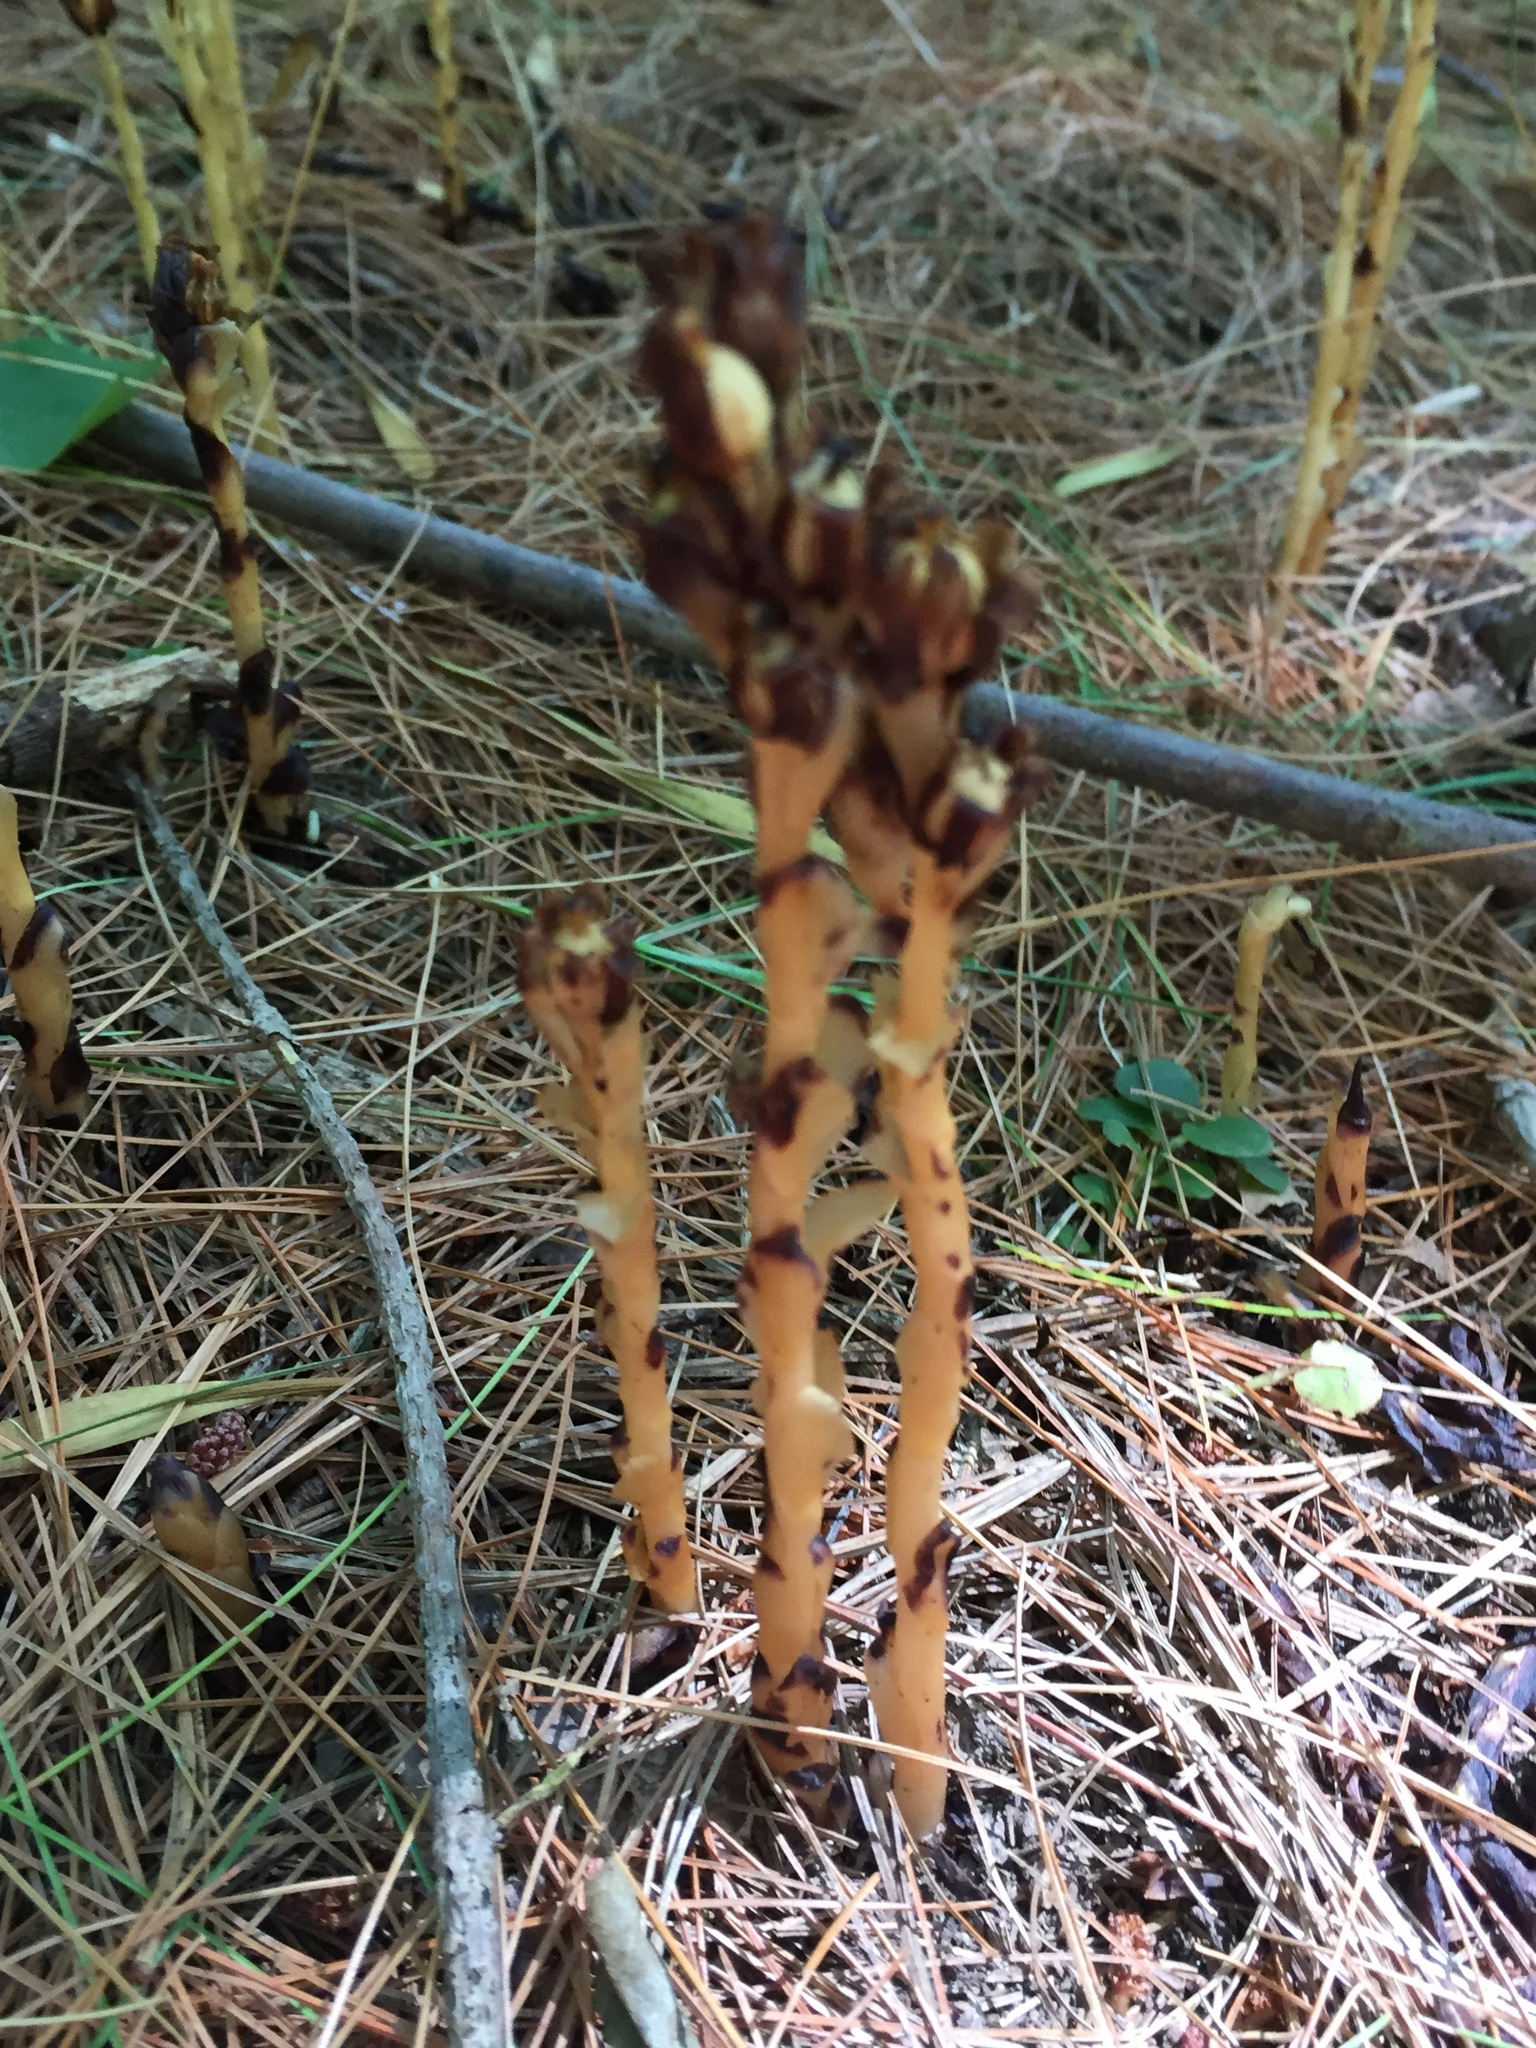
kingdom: Plantae
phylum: Tracheophyta
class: Magnoliopsida
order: Ericales
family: Ericaceae
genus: Hypopitys
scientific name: Hypopitys monotropa
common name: Yellow bird's-nest
